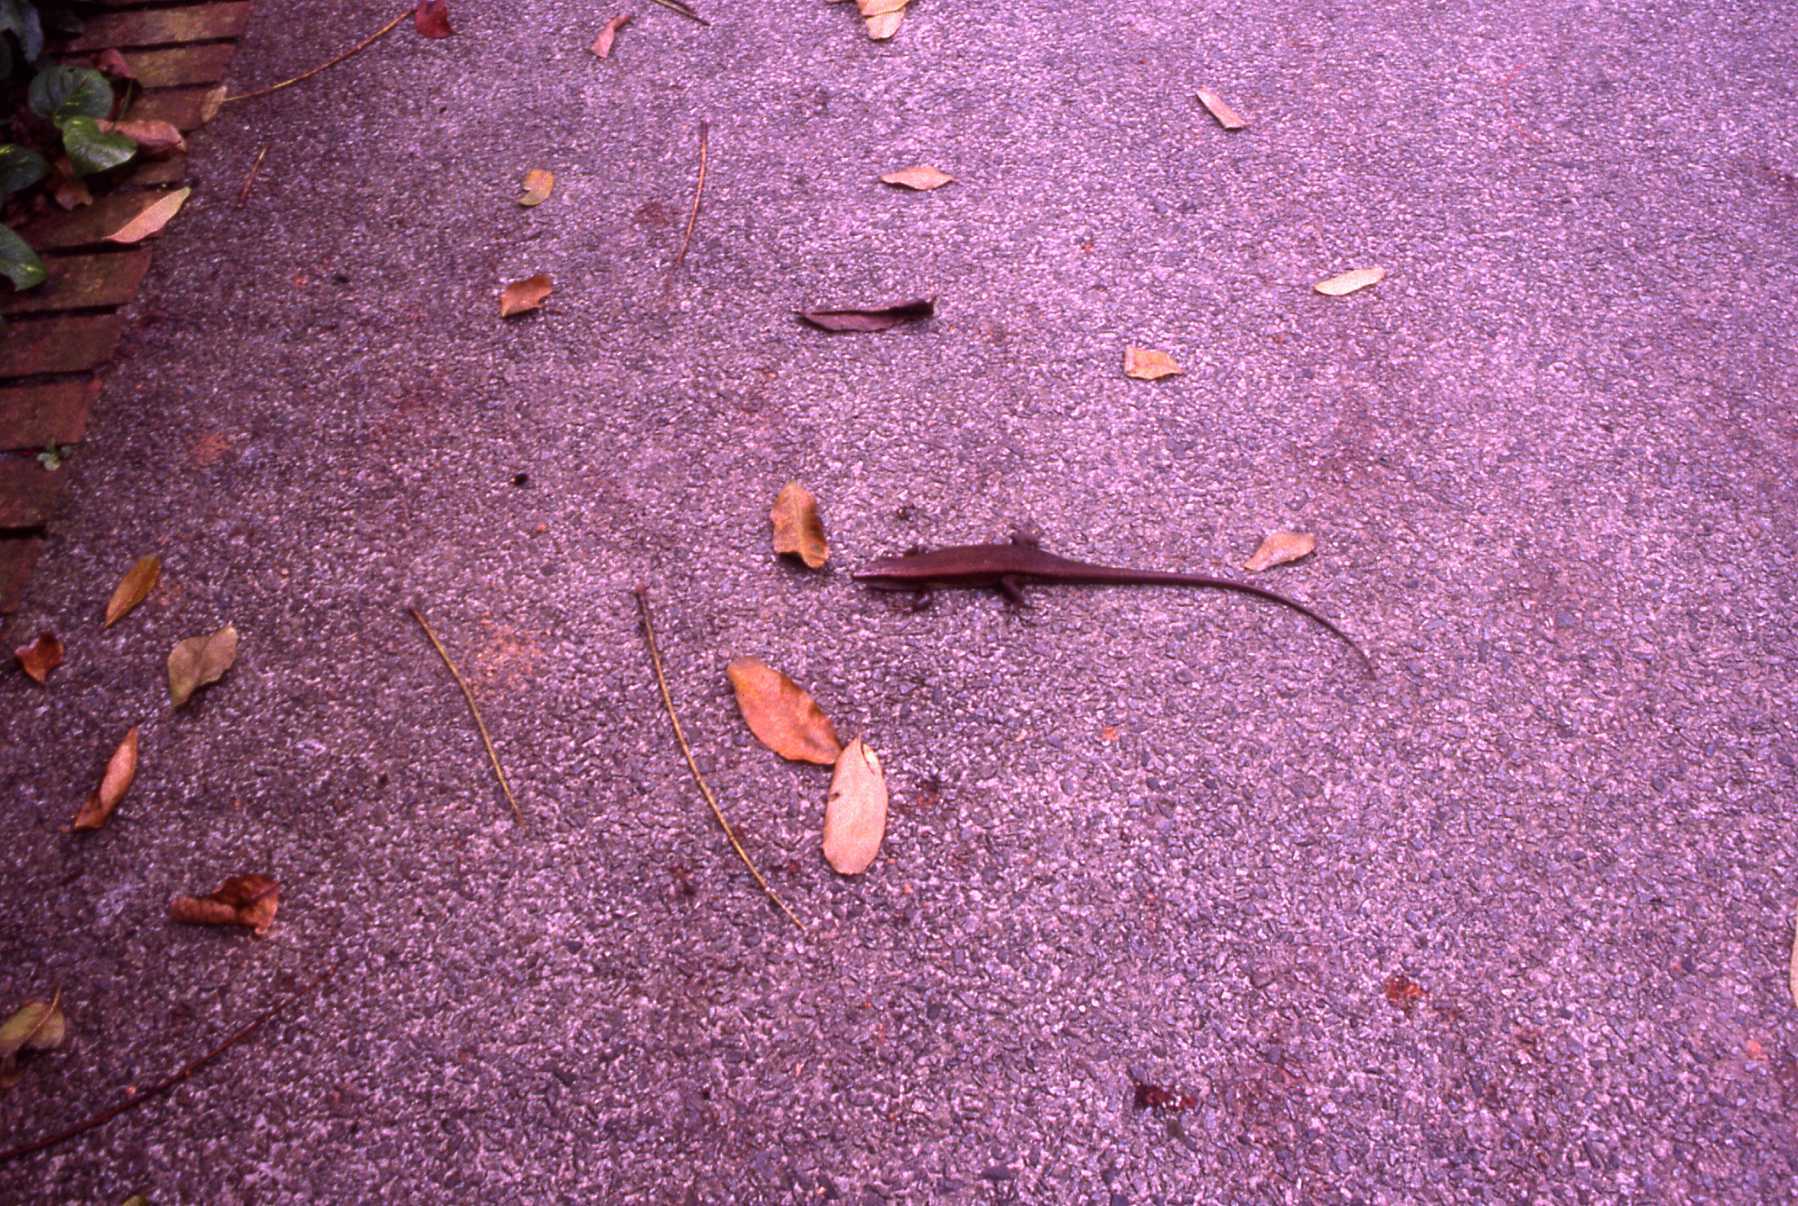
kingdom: Animalia
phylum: Chordata
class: Squamata
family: Scincidae
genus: Eutropis
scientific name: Eutropis multifasciata
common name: Common mabuya
